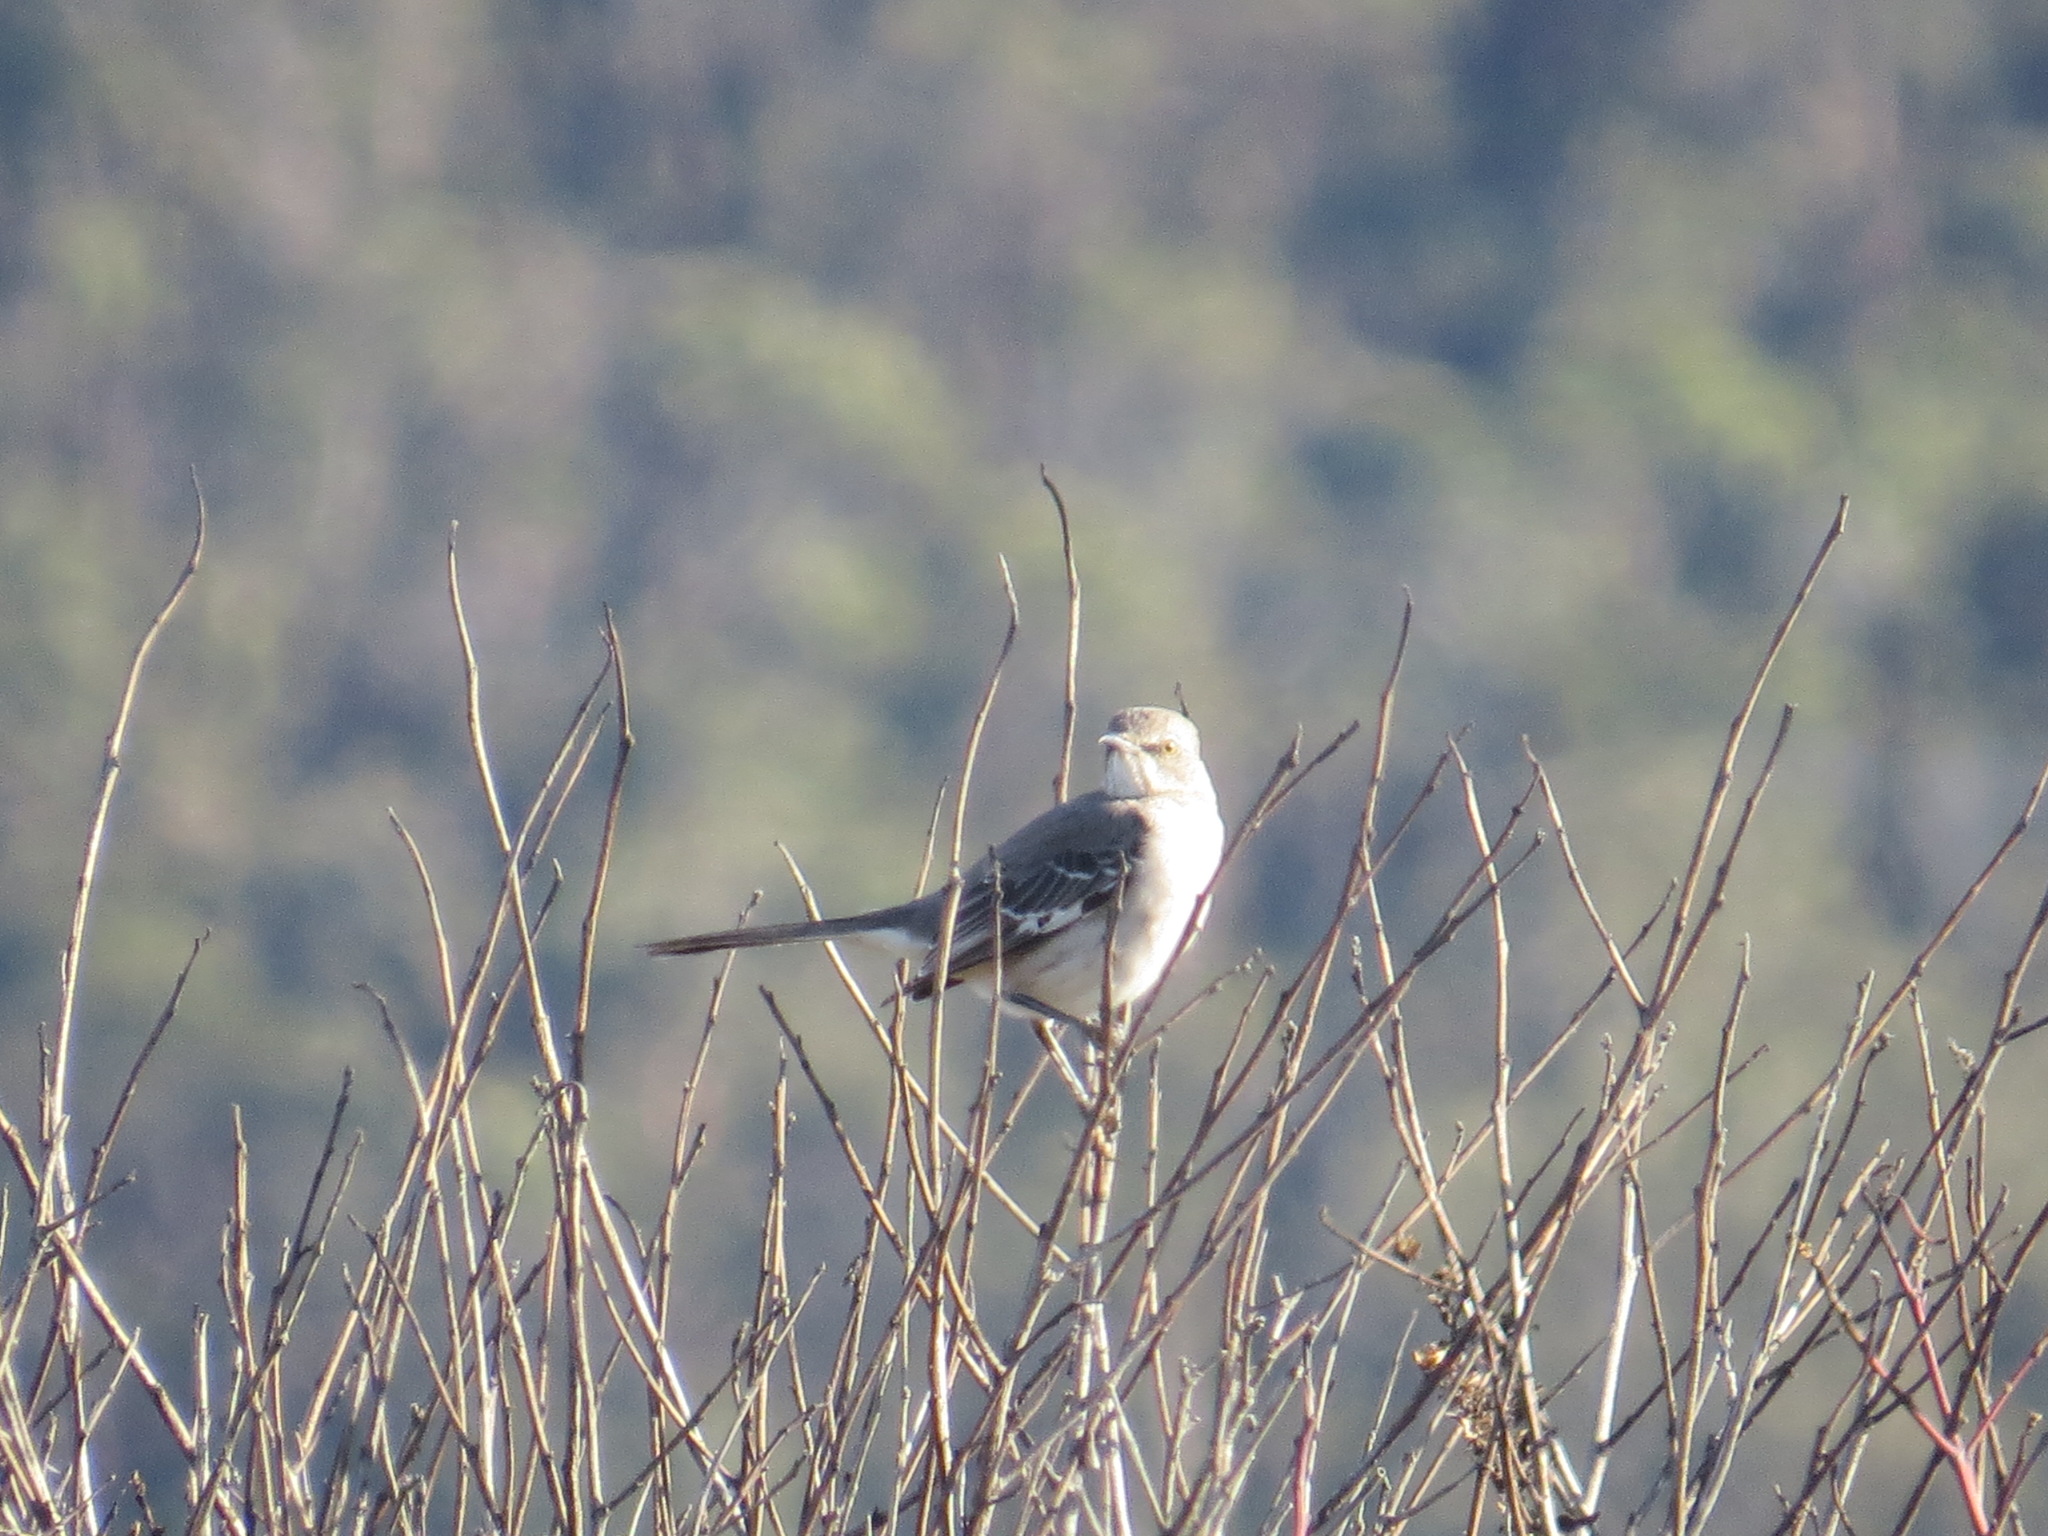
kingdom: Animalia
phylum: Chordata
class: Aves
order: Passeriformes
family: Mimidae
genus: Mimus
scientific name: Mimus polyglottos
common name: Northern mockingbird
